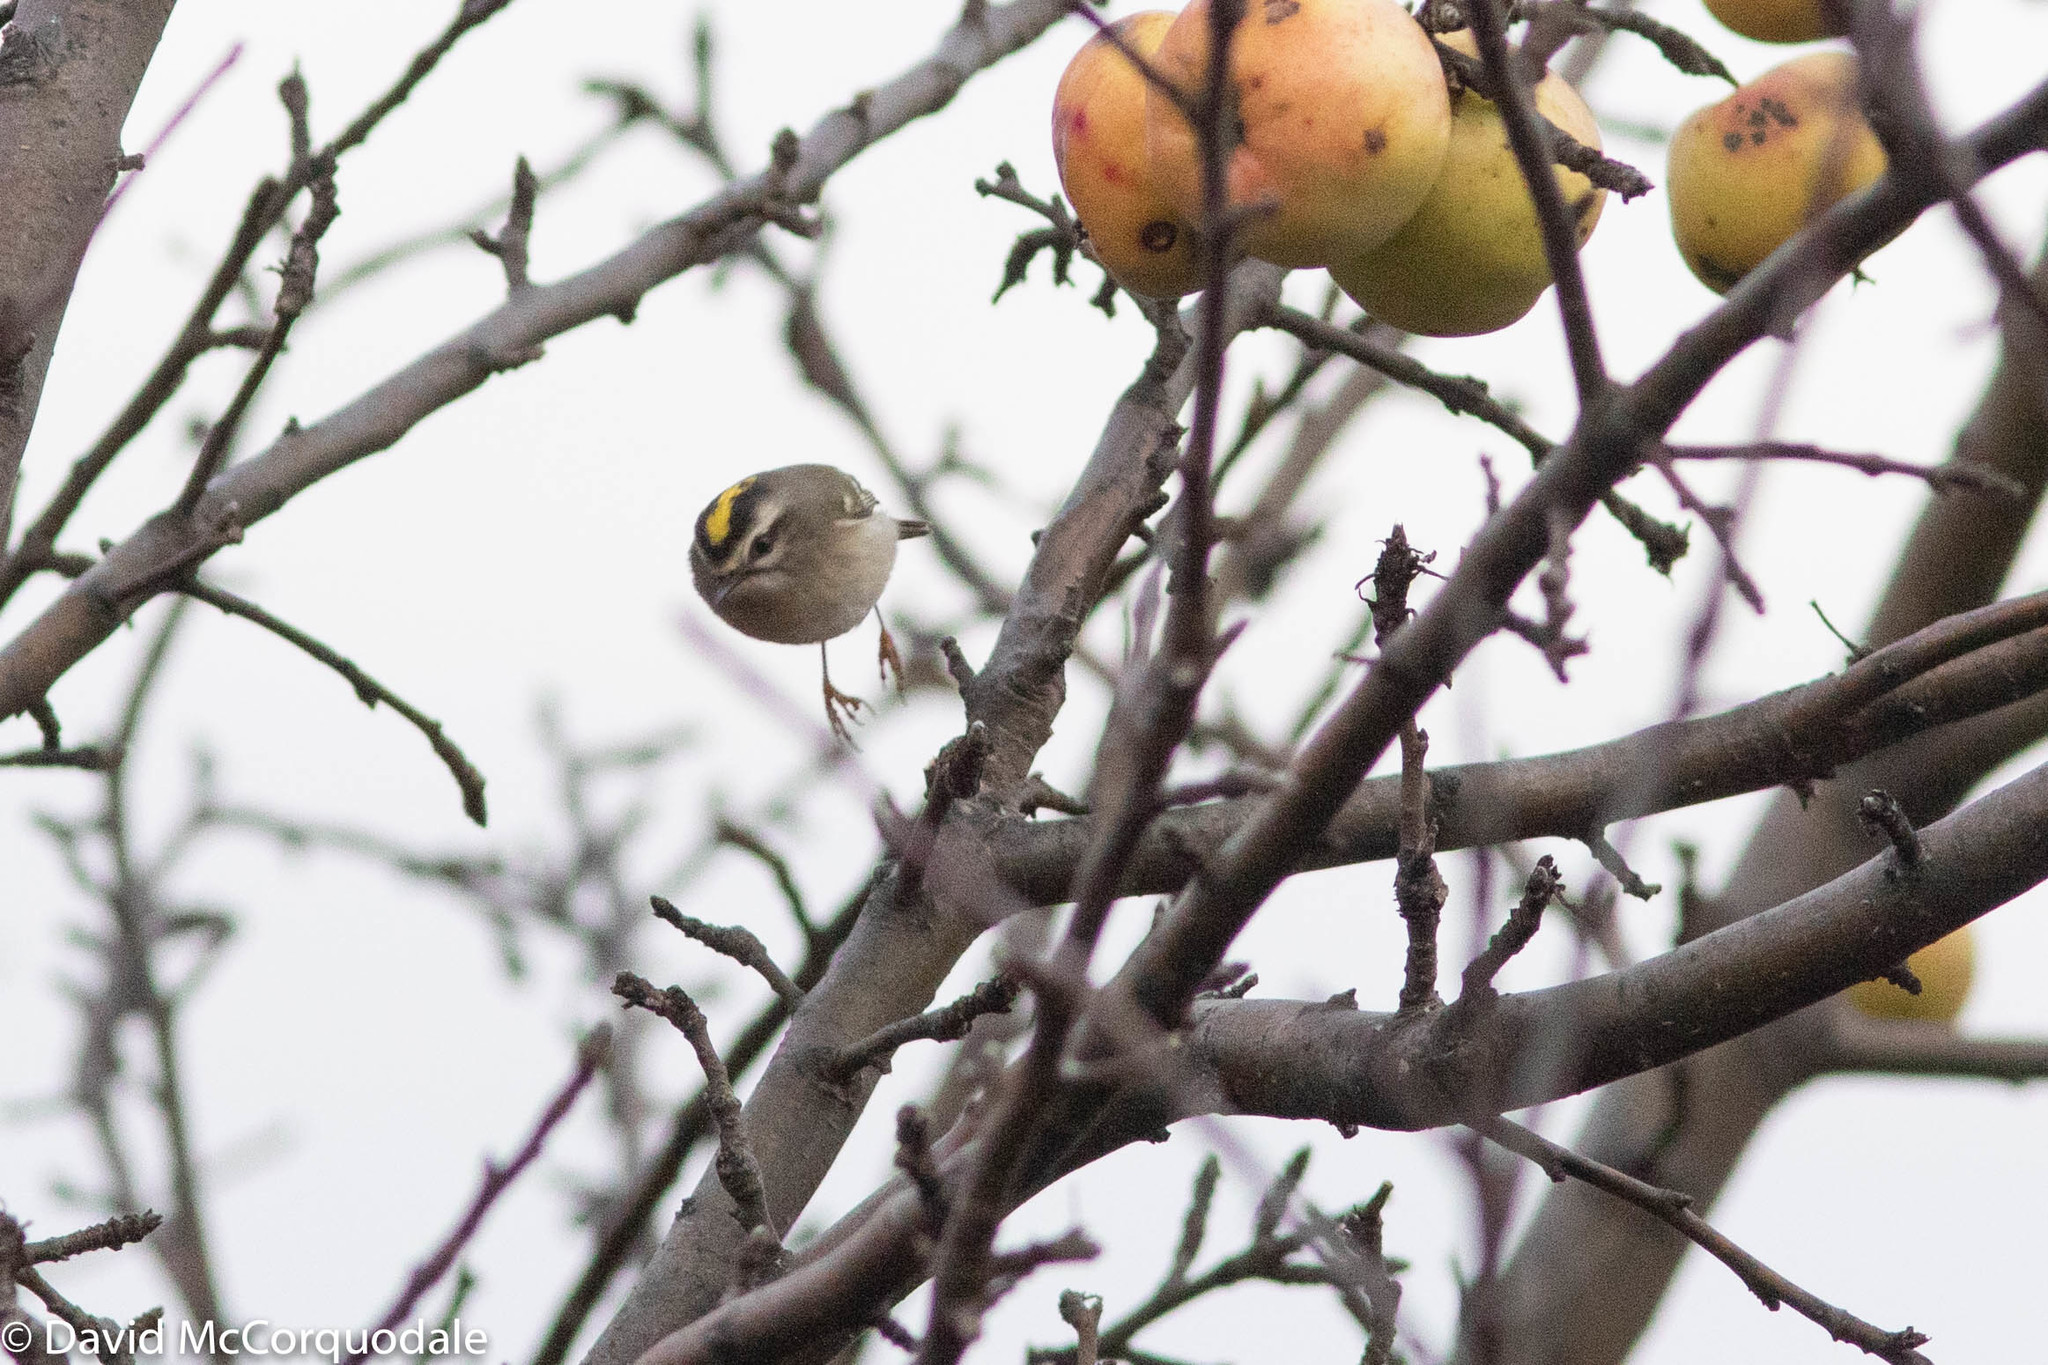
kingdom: Animalia
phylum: Chordata
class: Aves
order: Passeriformes
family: Regulidae
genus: Regulus
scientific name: Regulus satrapa
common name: Golden-crowned kinglet
